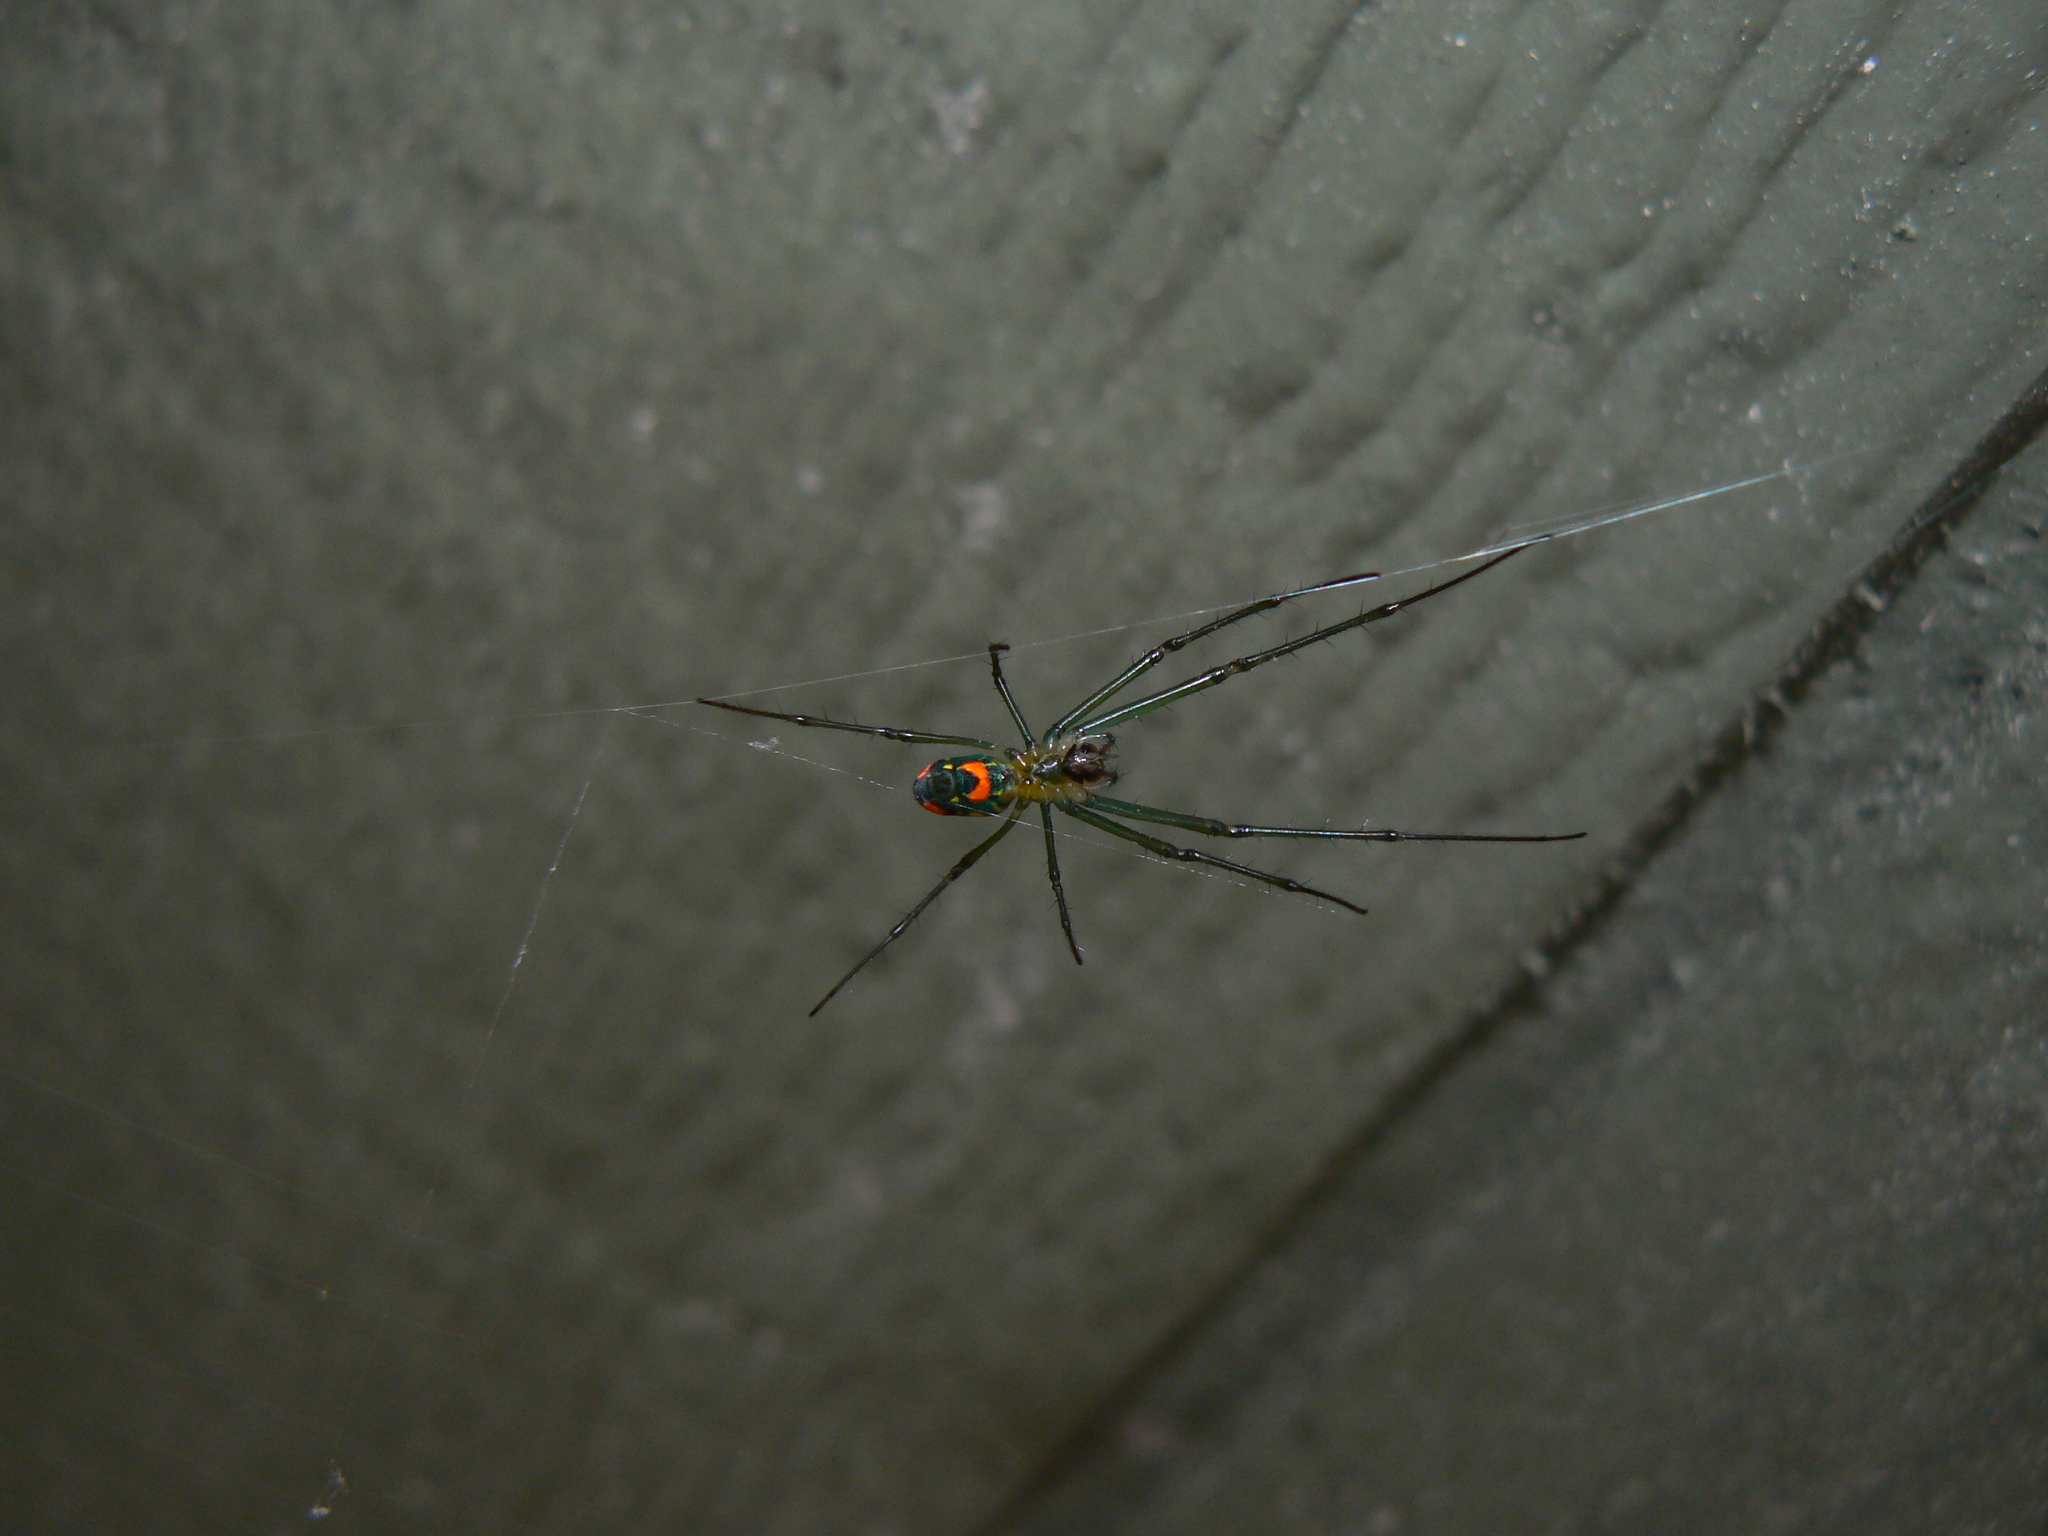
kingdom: Animalia
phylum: Arthropoda
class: Arachnida
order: Araneae
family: Tetragnathidae
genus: Leucauge
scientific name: Leucauge argyrobapta
